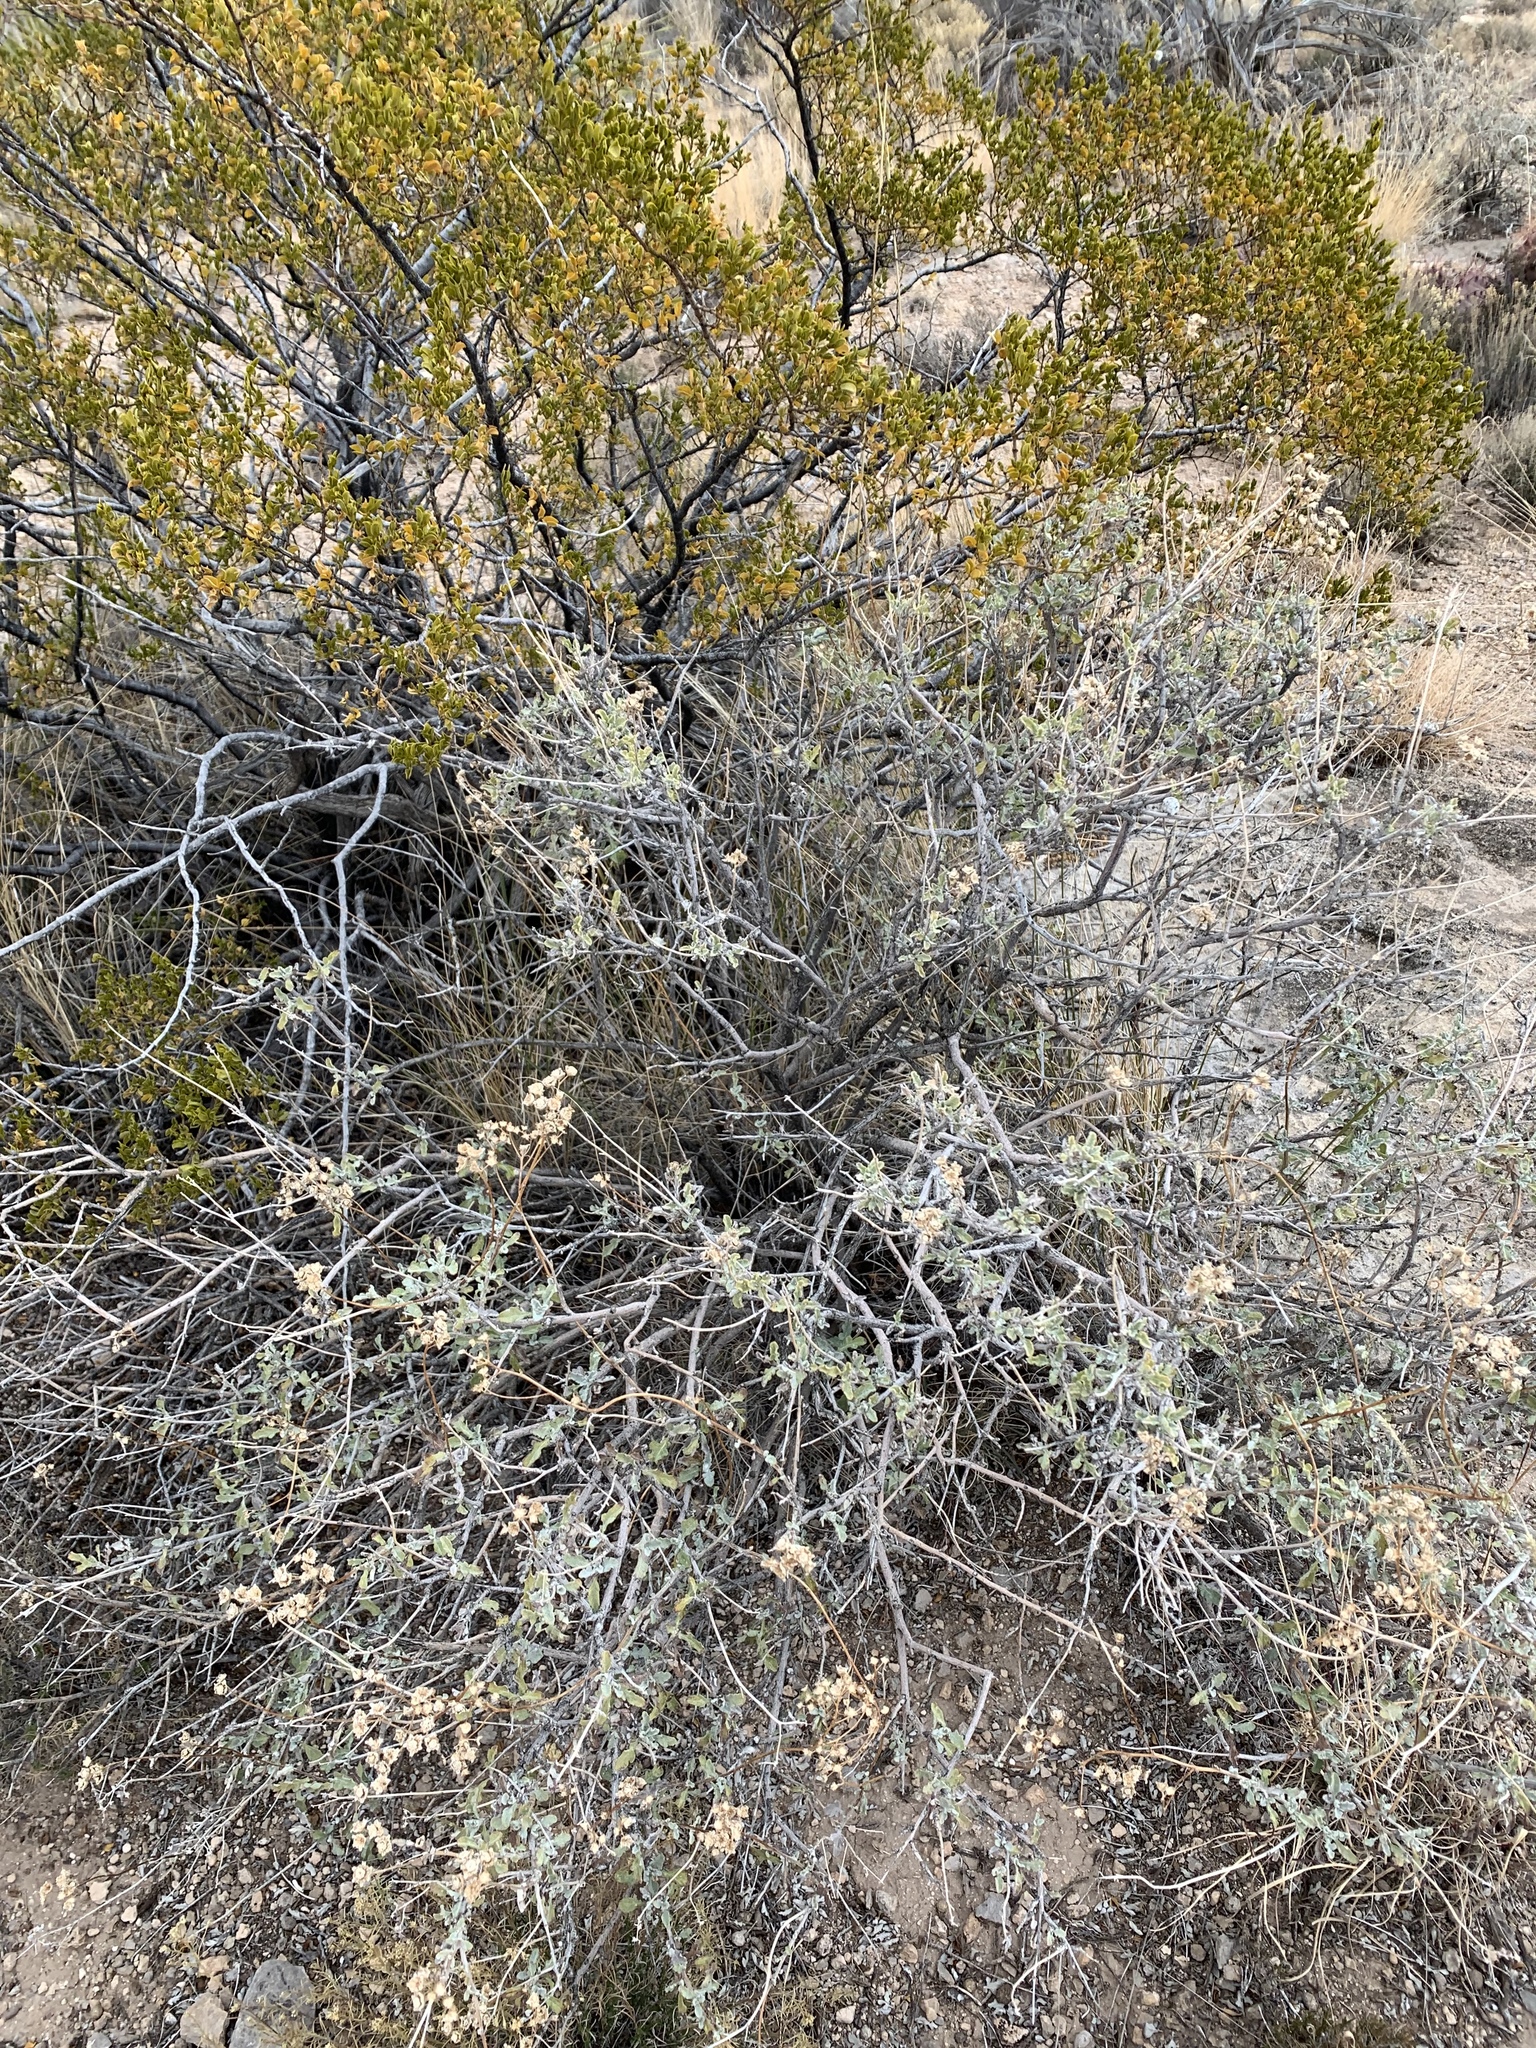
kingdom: Plantae
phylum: Tracheophyta
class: Magnoliopsida
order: Zygophyllales
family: Zygophyllaceae
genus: Larrea
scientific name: Larrea tridentata
